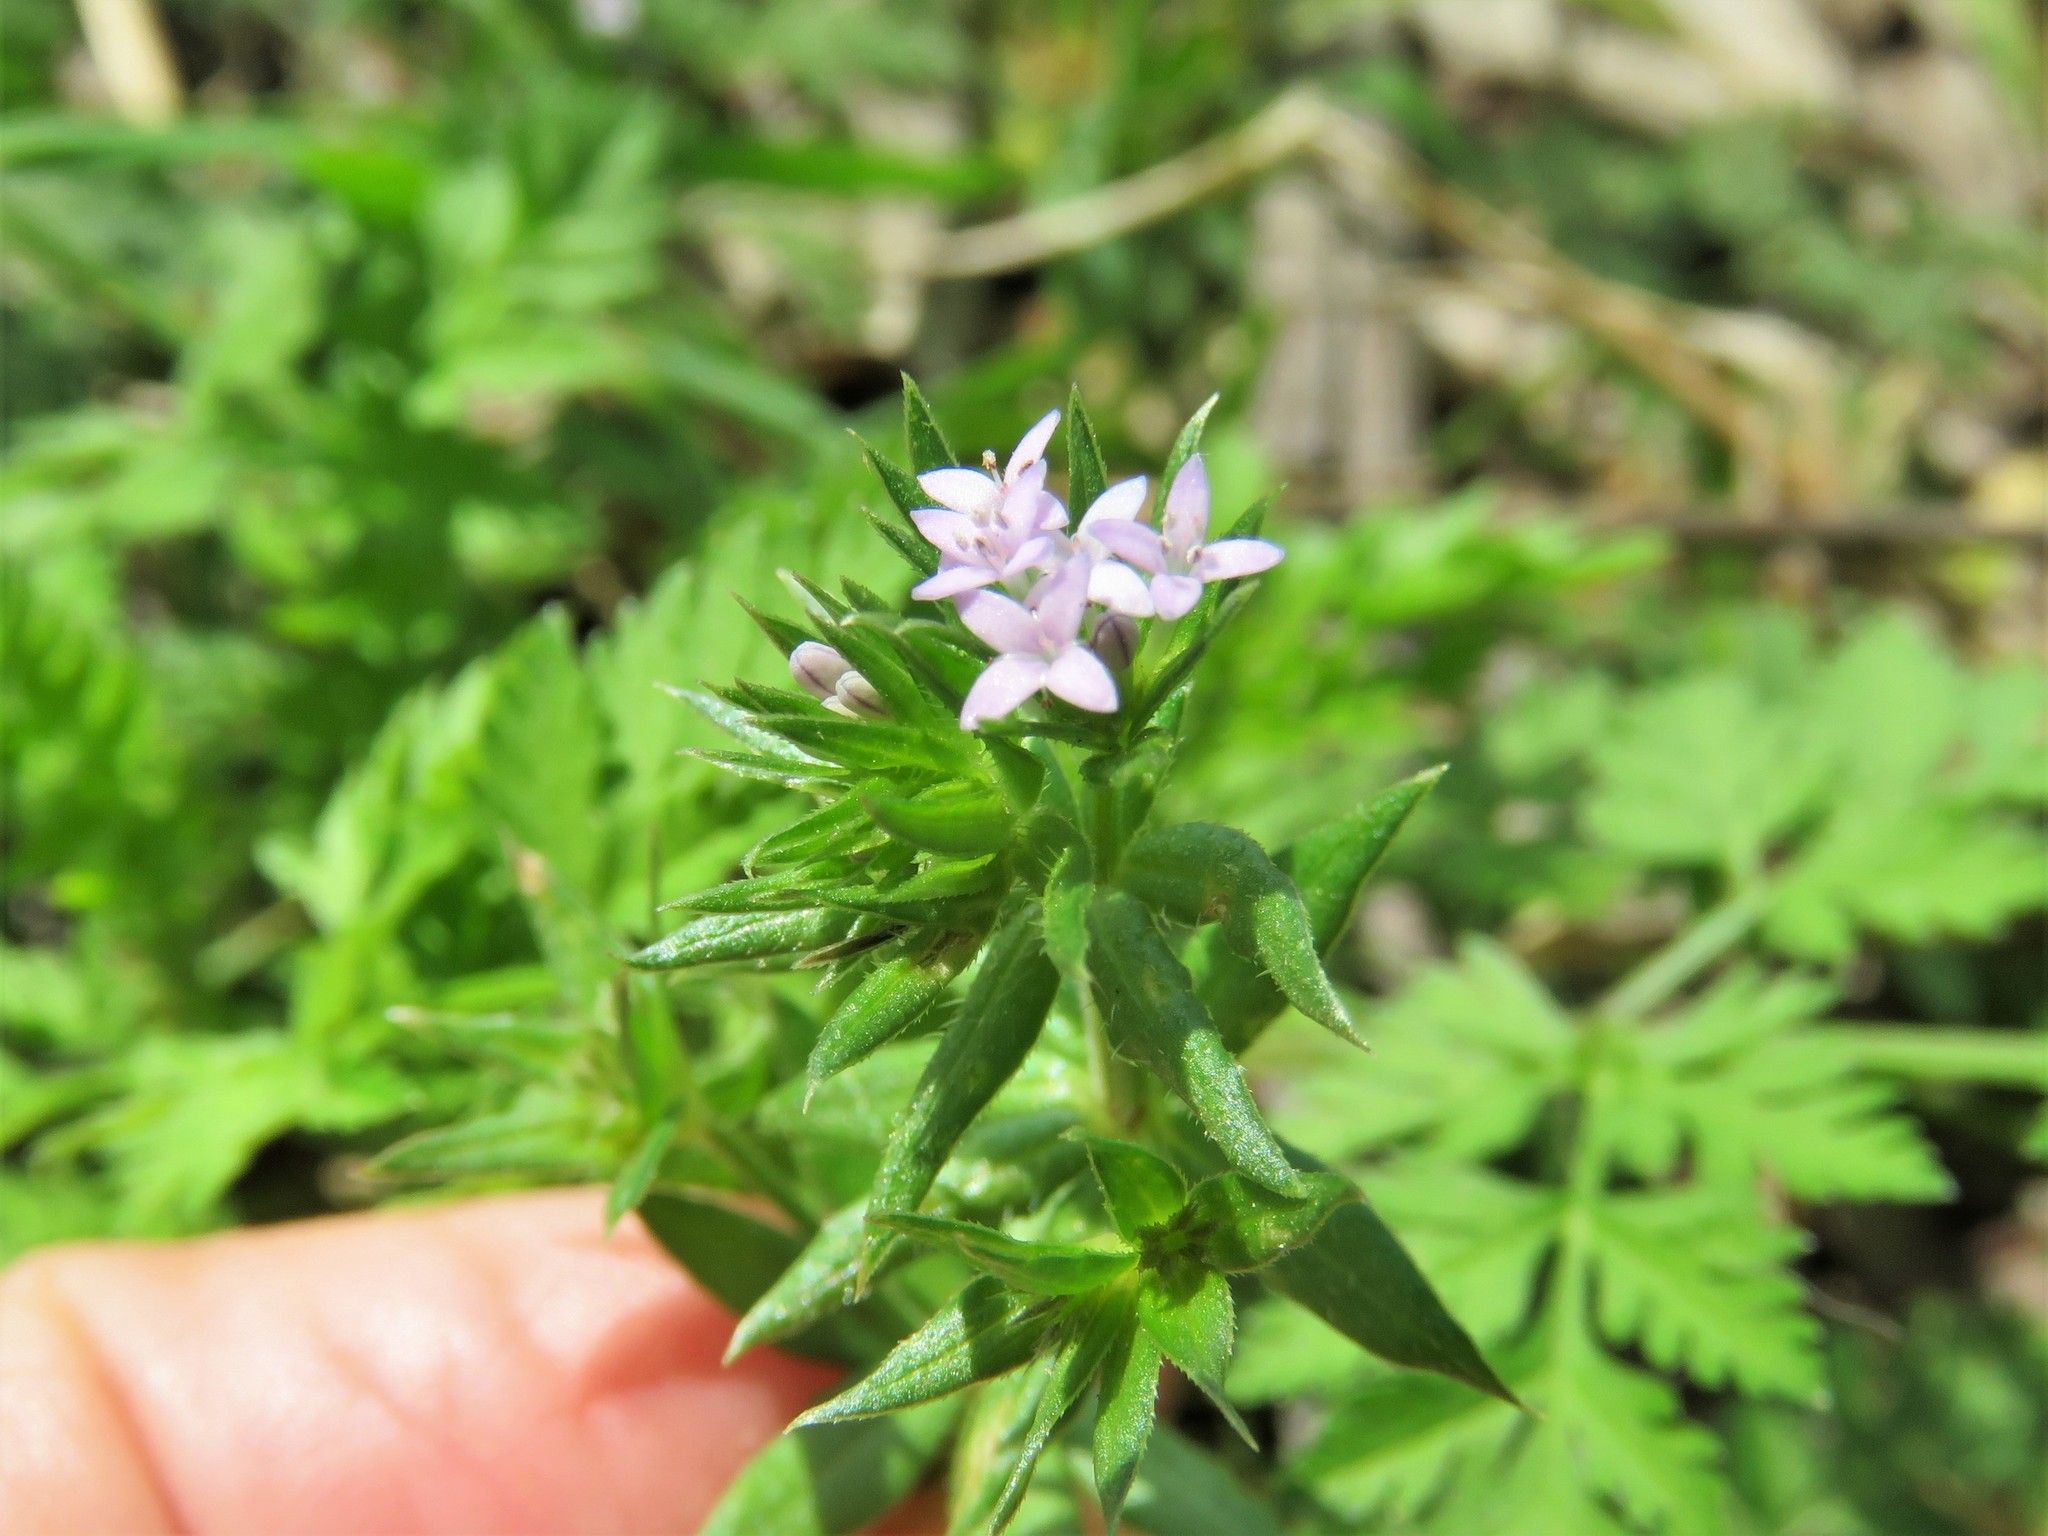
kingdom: Plantae
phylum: Tracheophyta
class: Magnoliopsida
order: Gentianales
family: Rubiaceae
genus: Sherardia
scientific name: Sherardia arvensis
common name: Field madder
